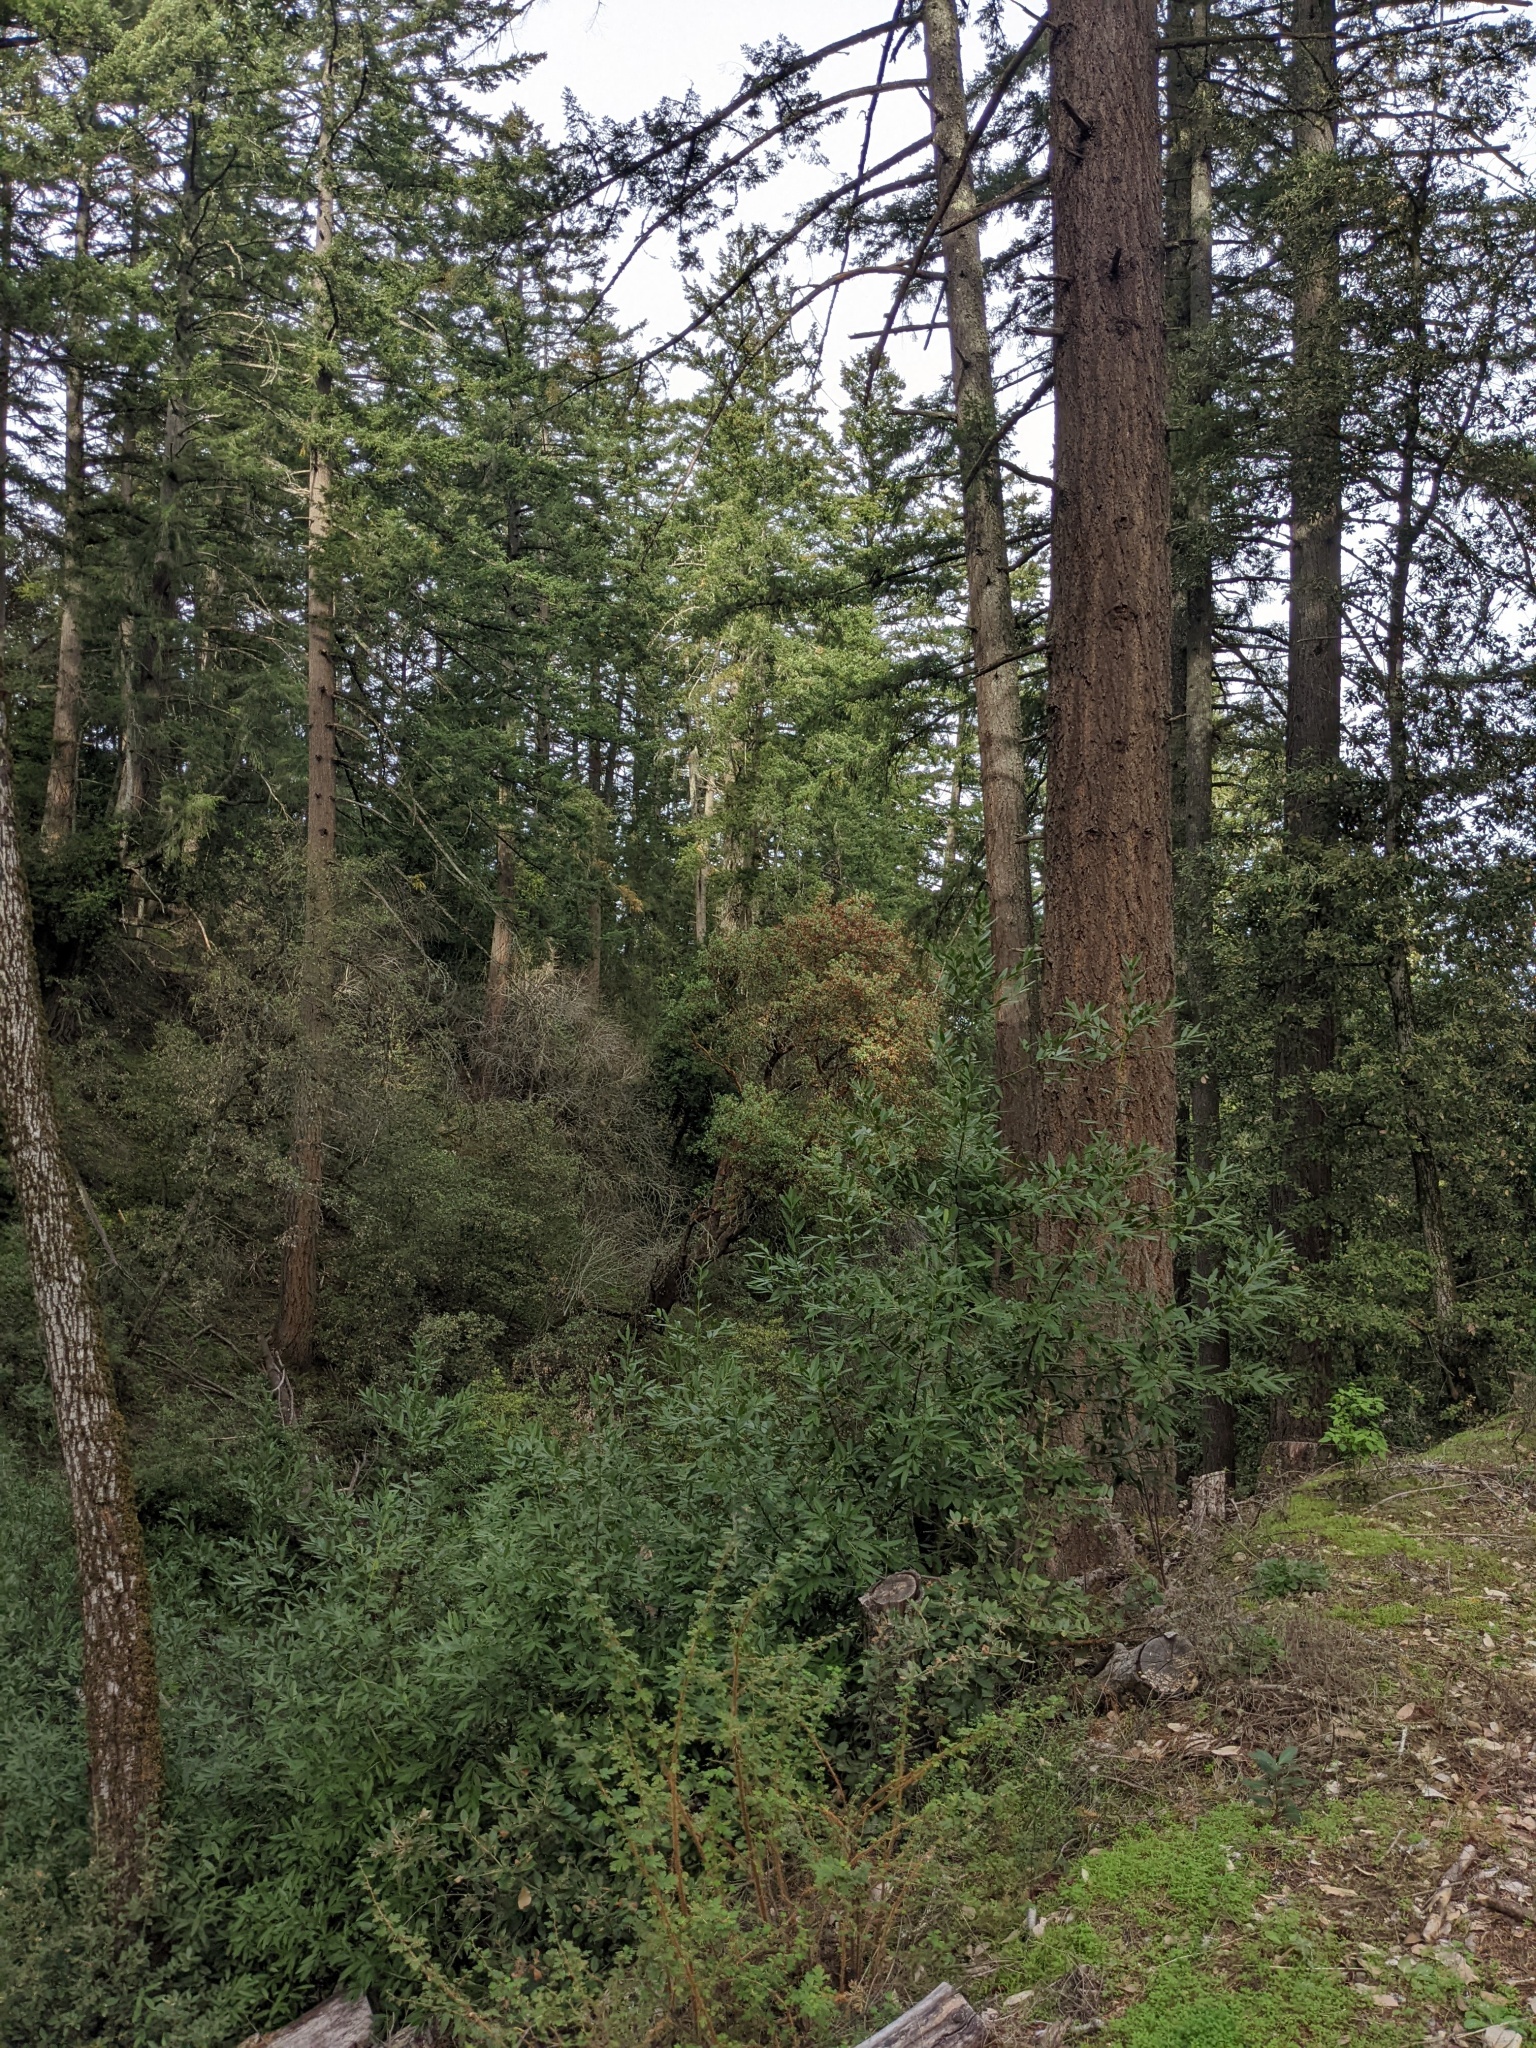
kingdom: Plantae
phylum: Tracheophyta
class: Magnoliopsida
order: Ericales
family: Ericaceae
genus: Arbutus
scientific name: Arbutus menziesii
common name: Pacific madrone
